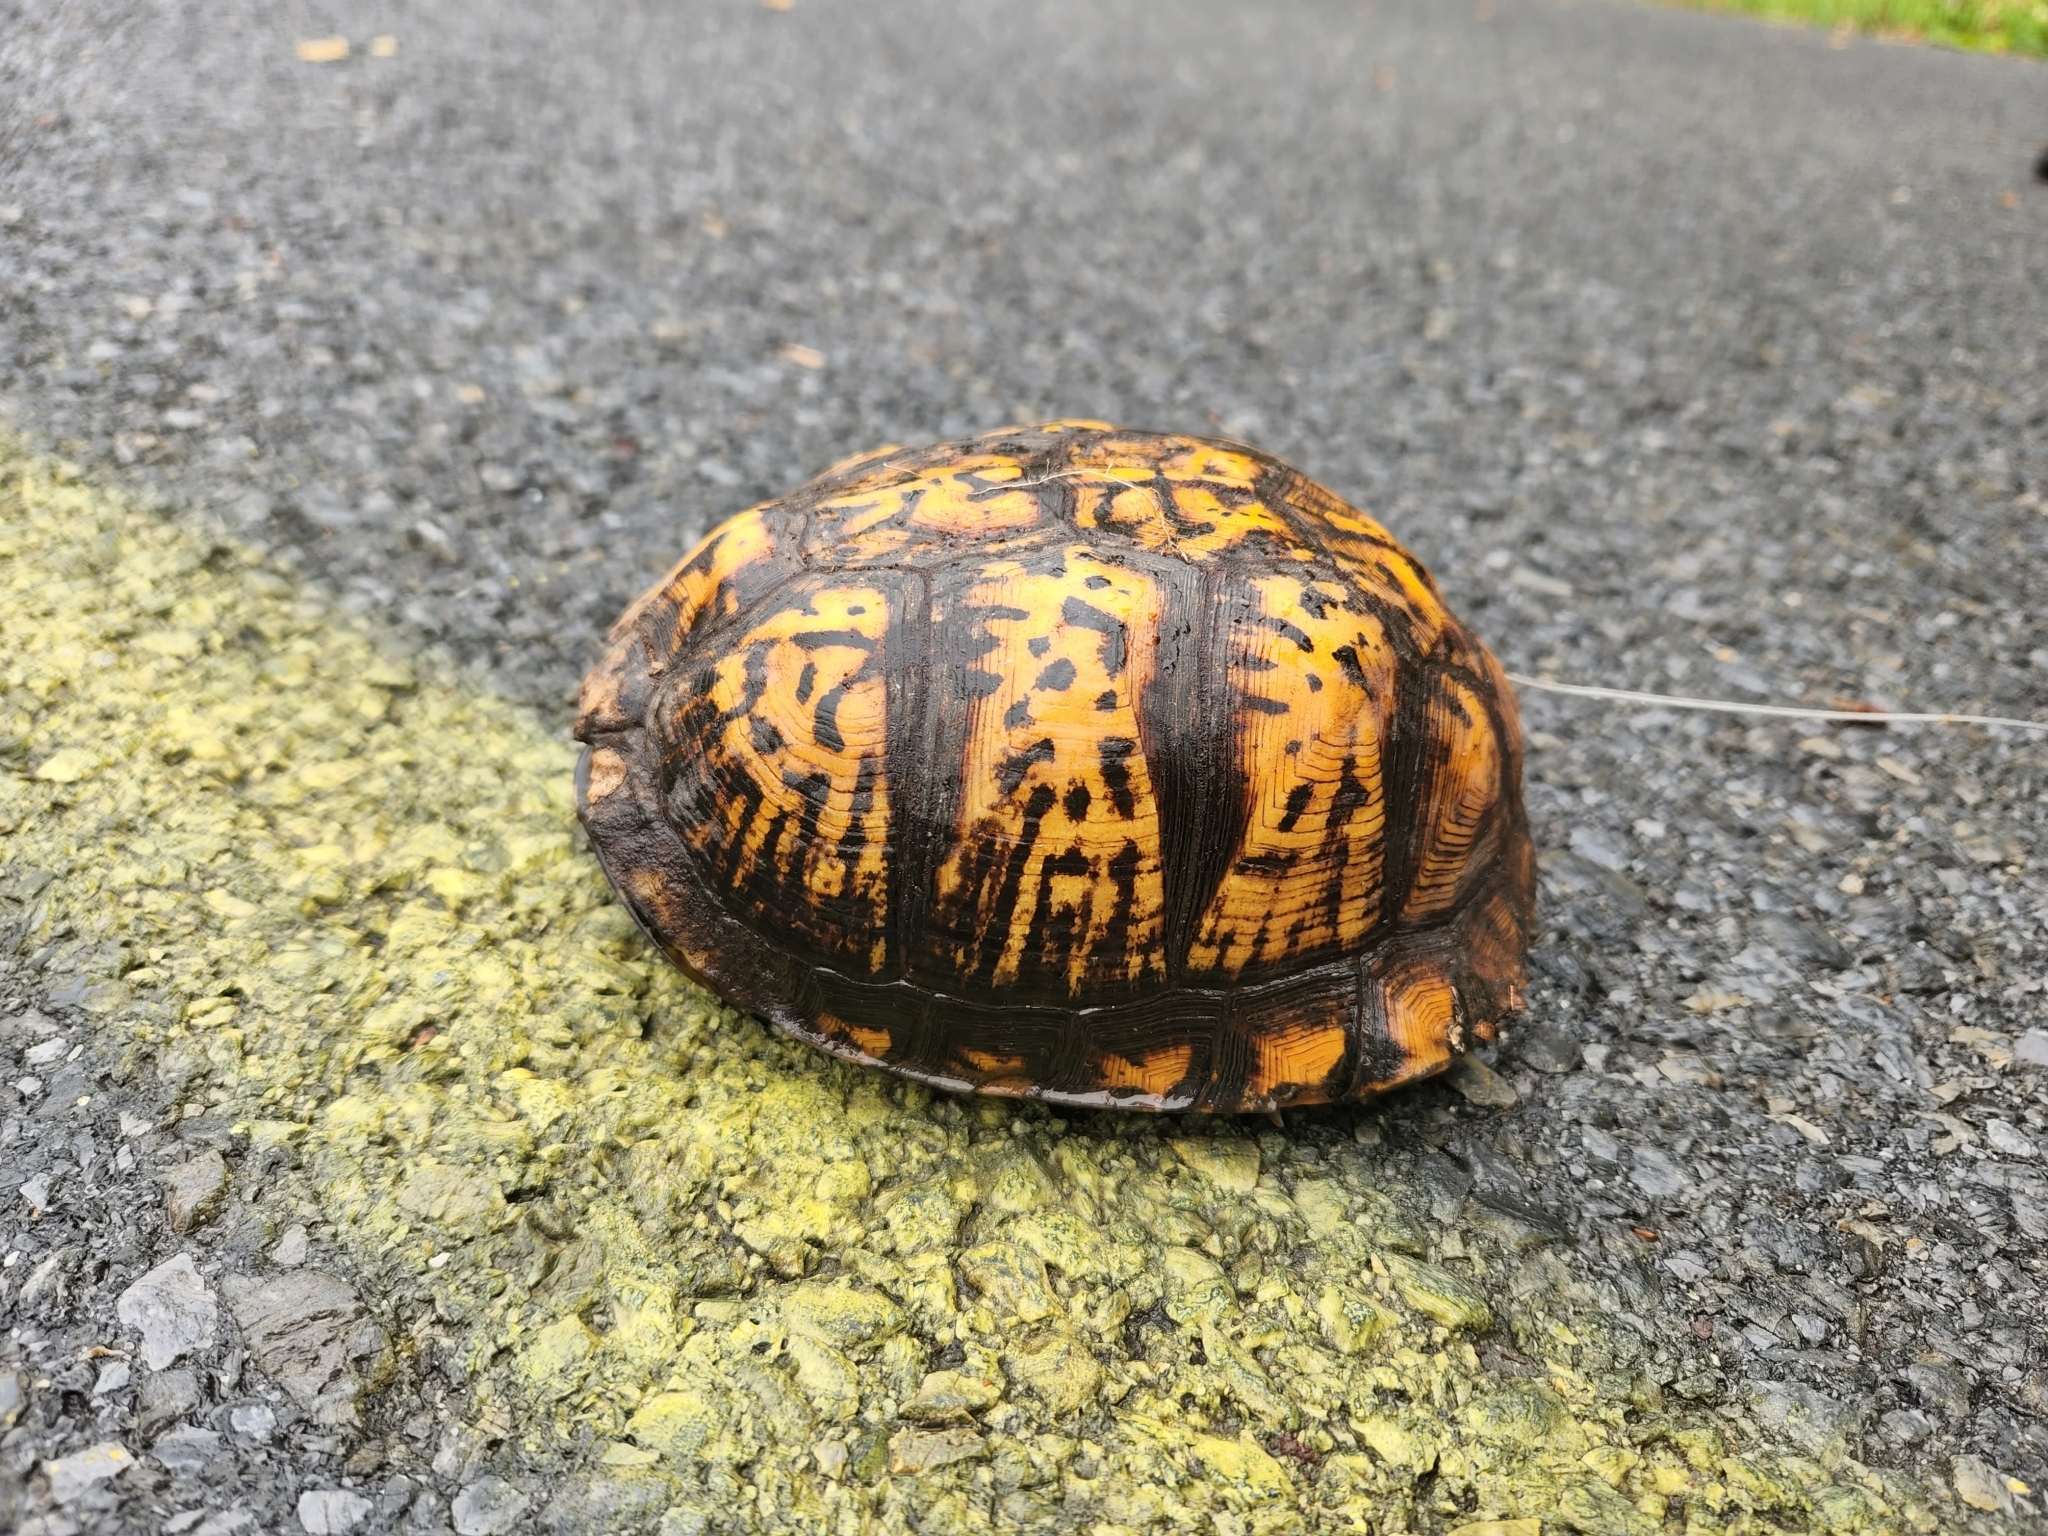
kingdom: Animalia
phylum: Chordata
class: Testudines
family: Emydidae
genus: Terrapene
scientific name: Terrapene carolina
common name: Common box turtle
